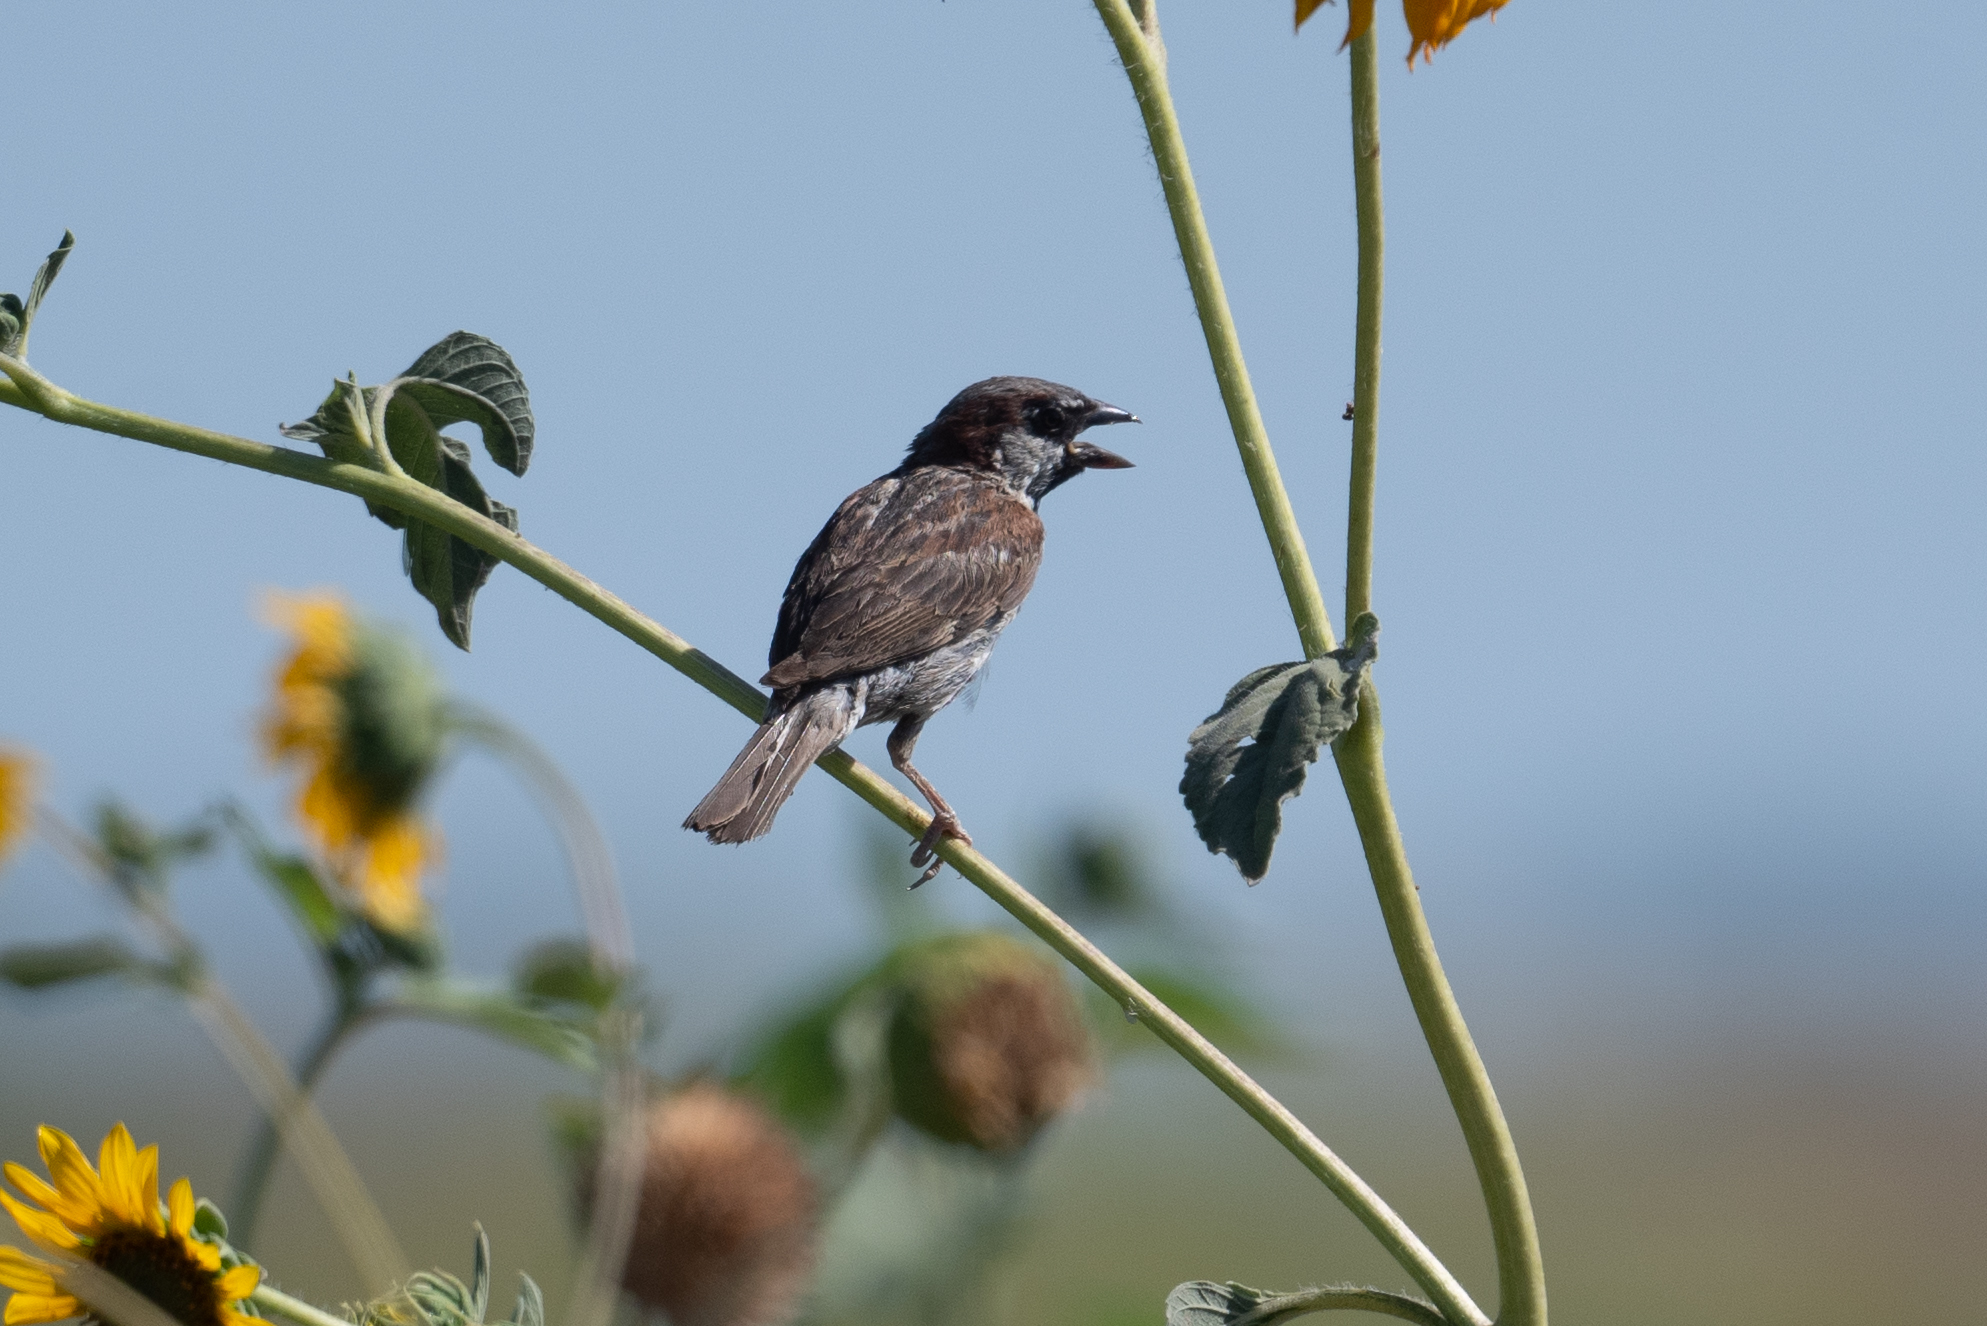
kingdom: Animalia
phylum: Chordata
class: Aves
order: Passeriformes
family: Passeridae
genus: Passer
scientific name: Passer domesticus
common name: House sparrow
